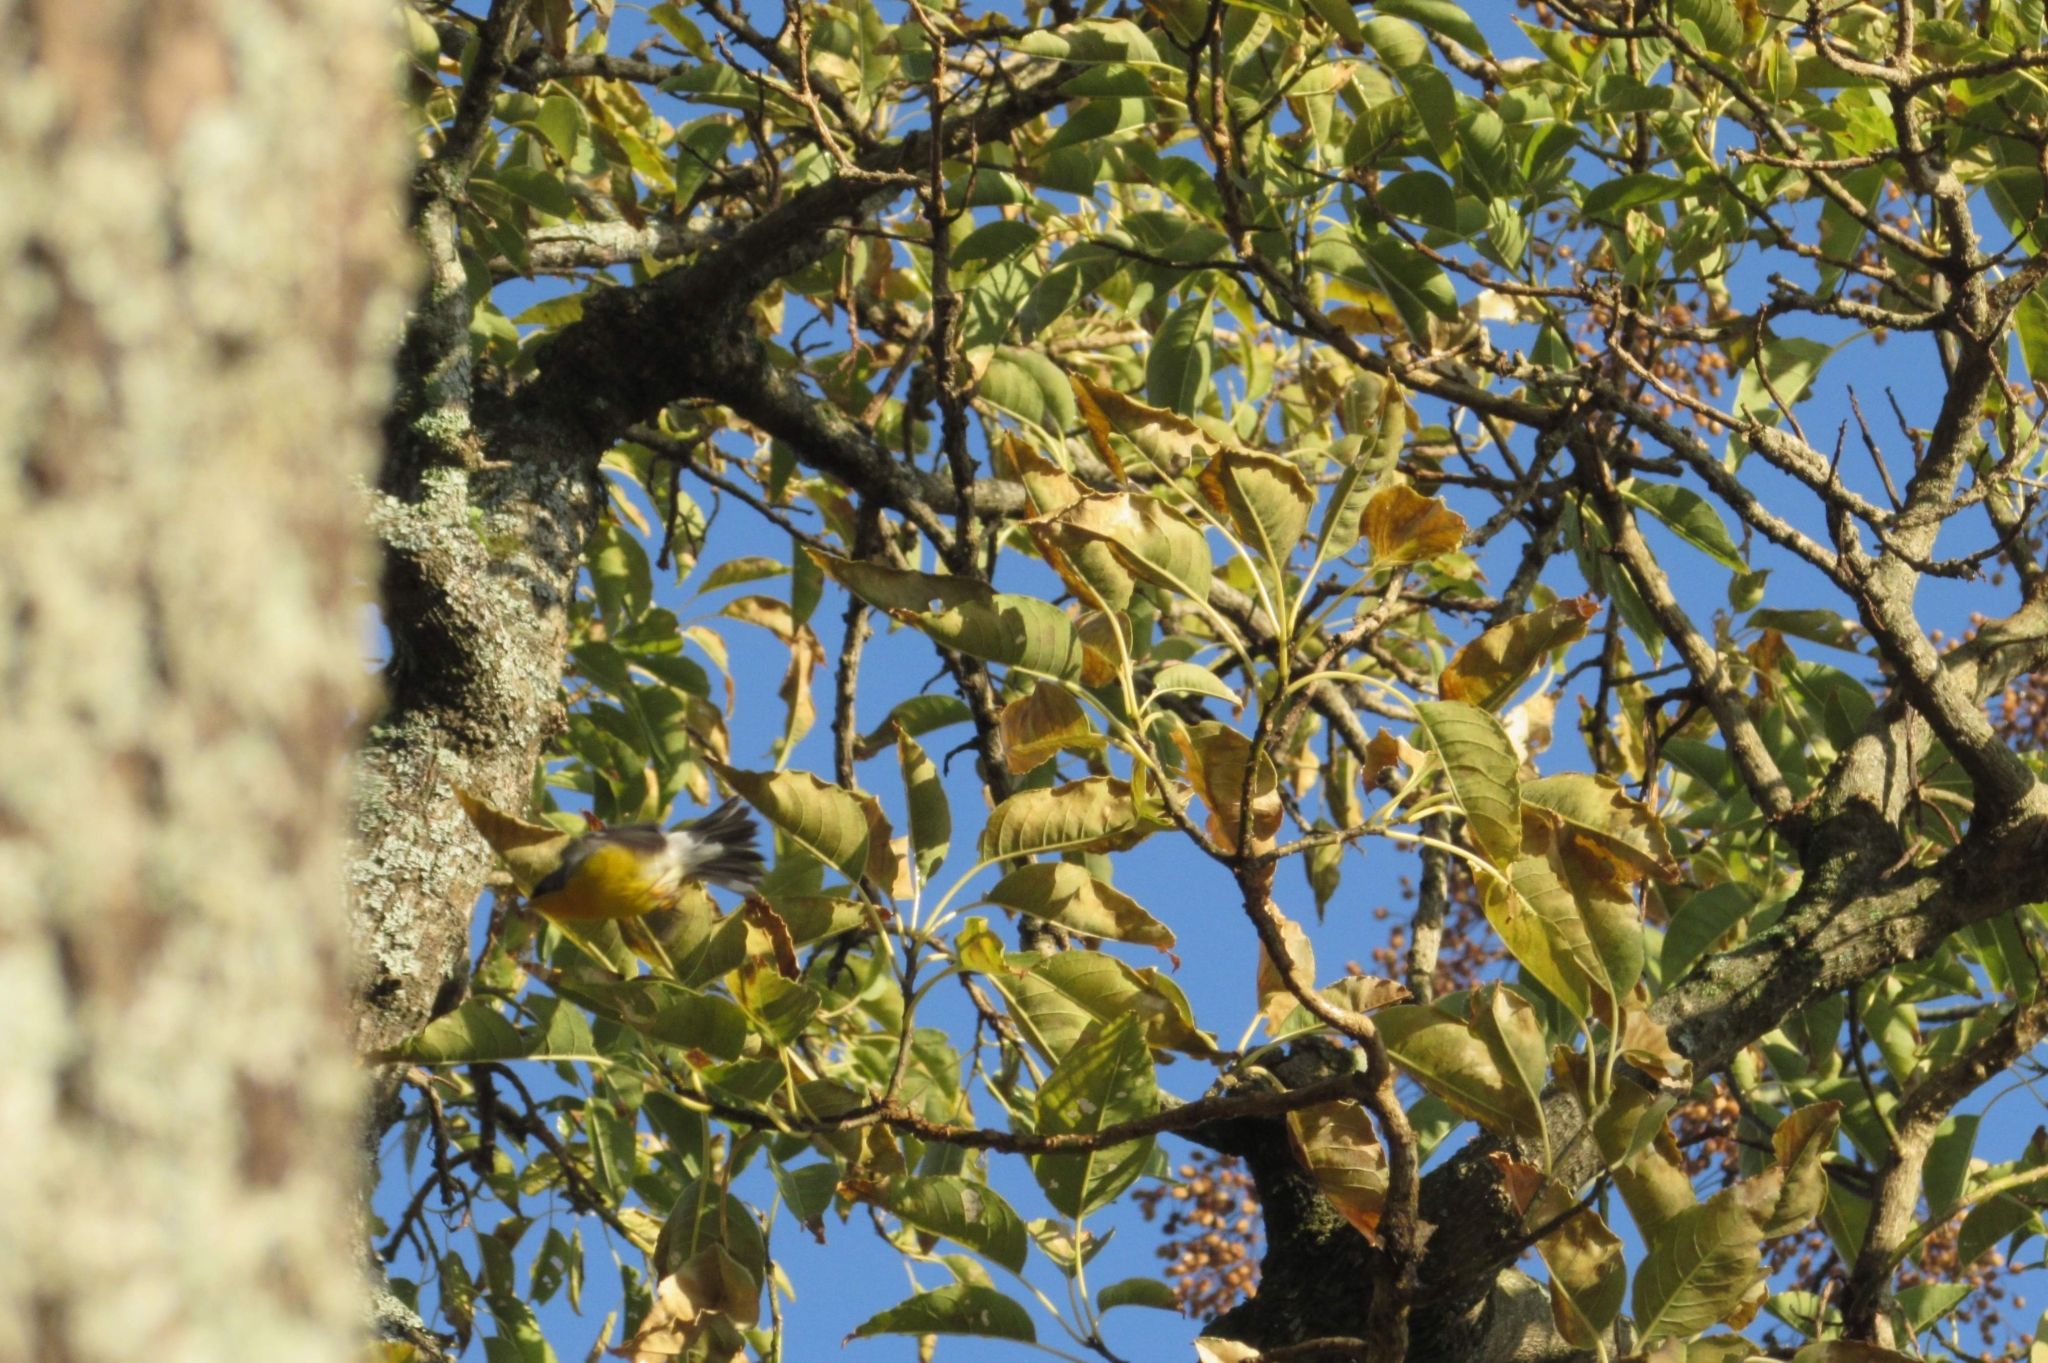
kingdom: Animalia
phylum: Chordata
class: Aves
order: Passeriformes
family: Parulidae
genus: Setophaga
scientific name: Setophaga pitiayumi
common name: Tropical parula
